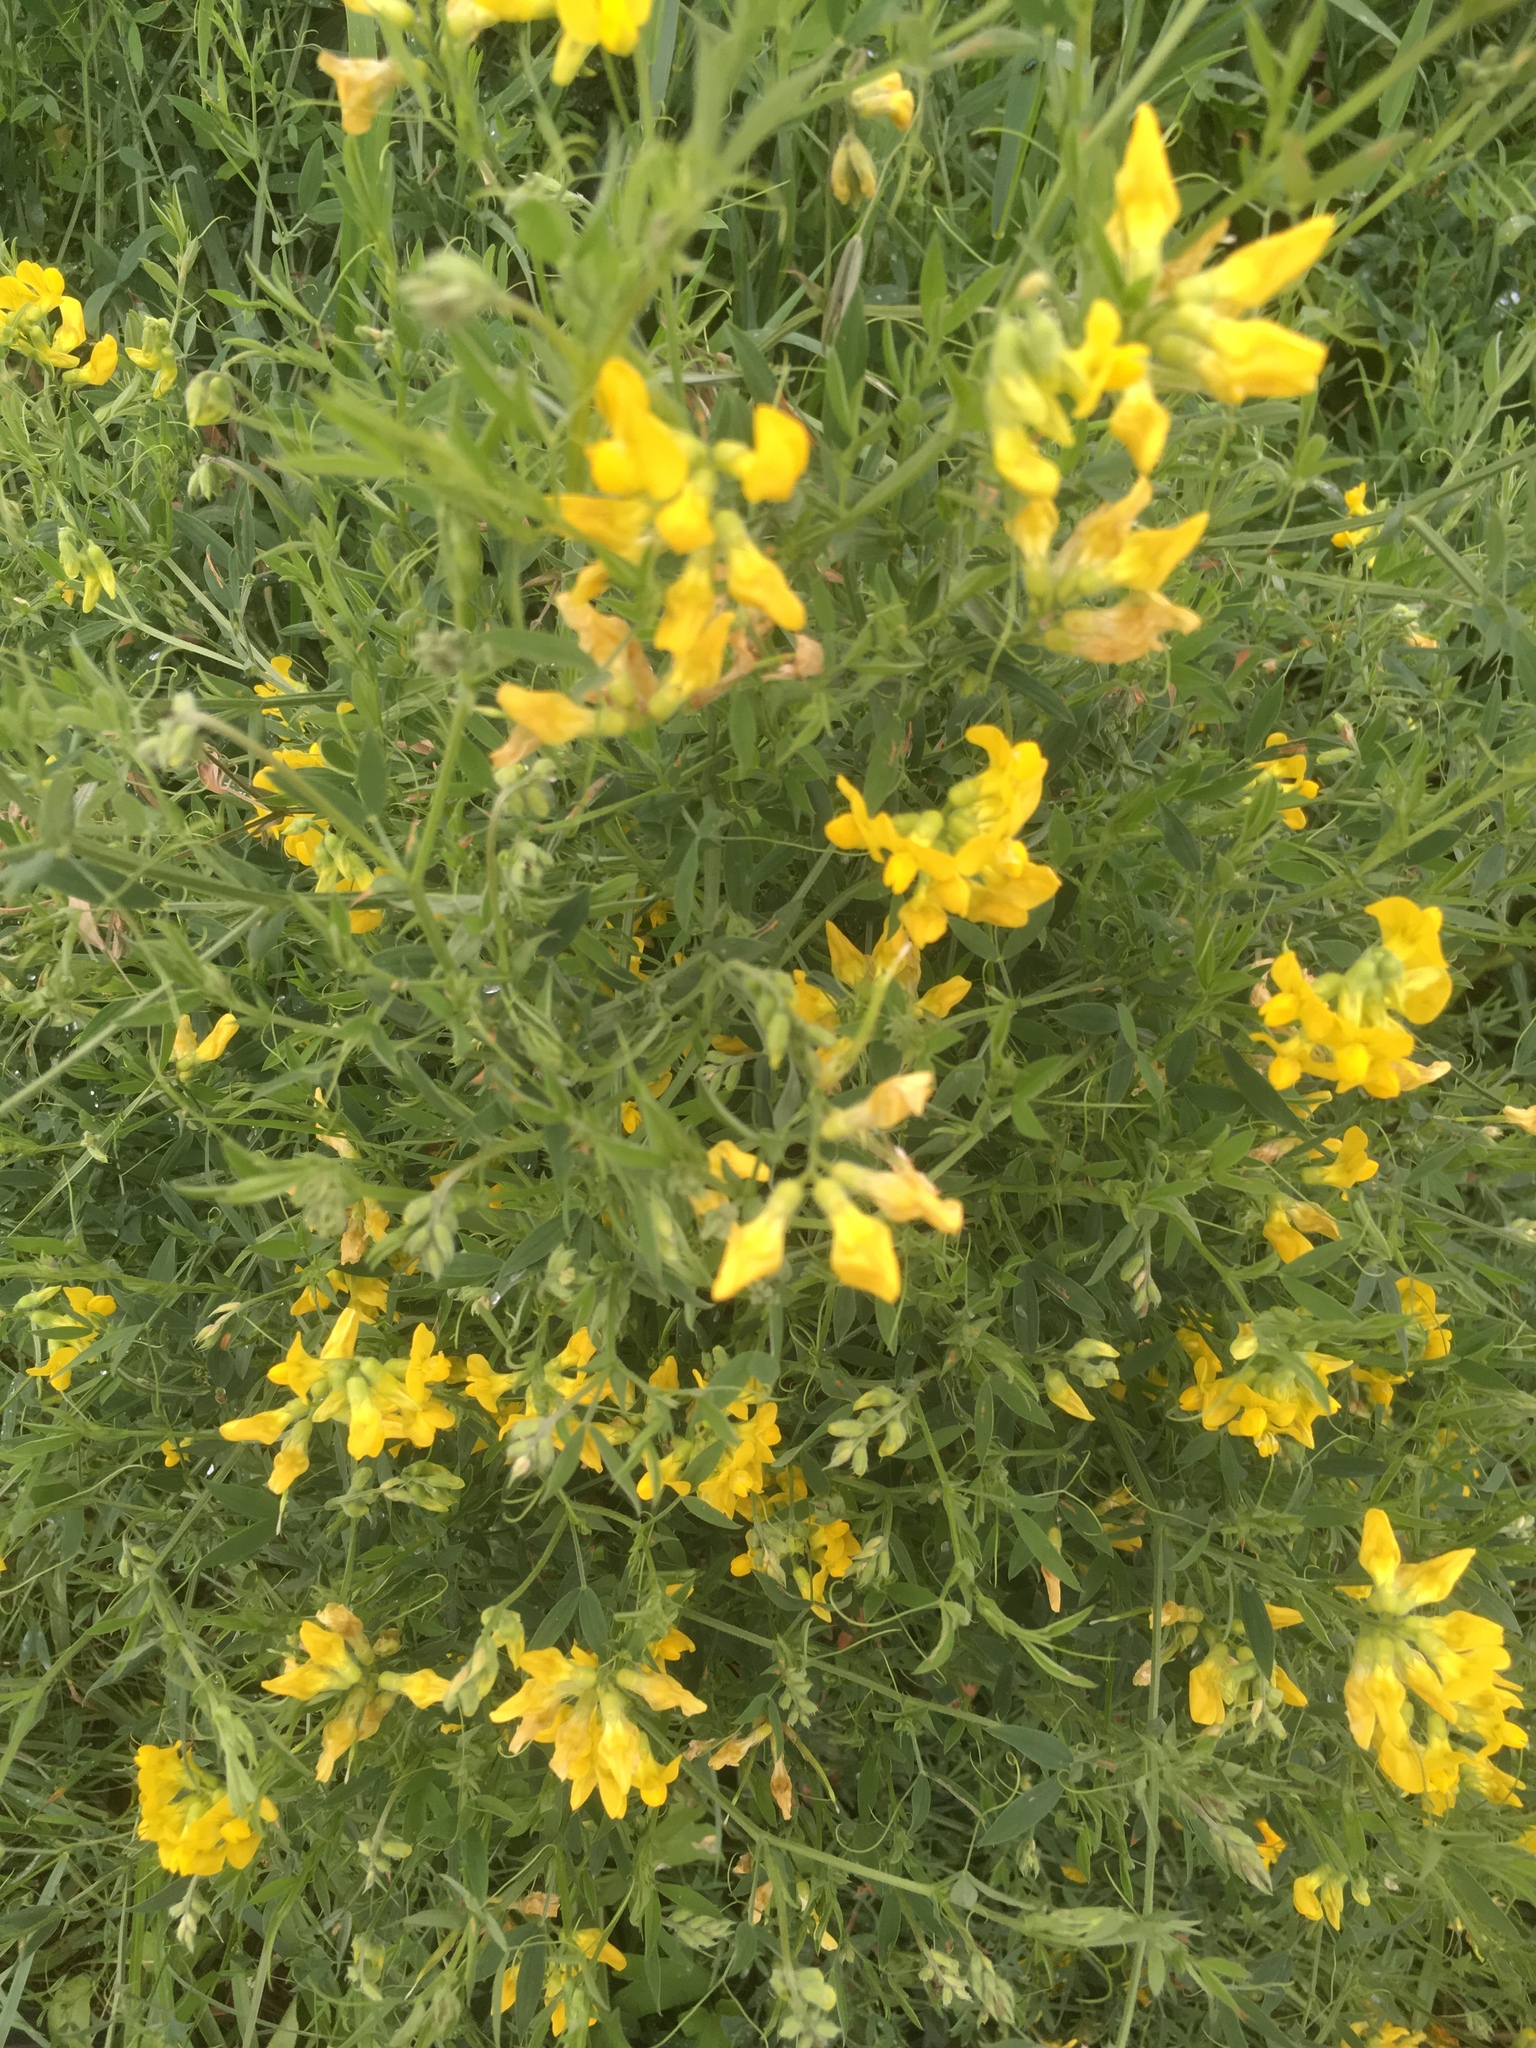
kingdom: Plantae
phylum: Tracheophyta
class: Magnoliopsida
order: Fabales
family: Fabaceae
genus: Lathyrus
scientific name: Lathyrus pratensis
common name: Meadow vetchling
